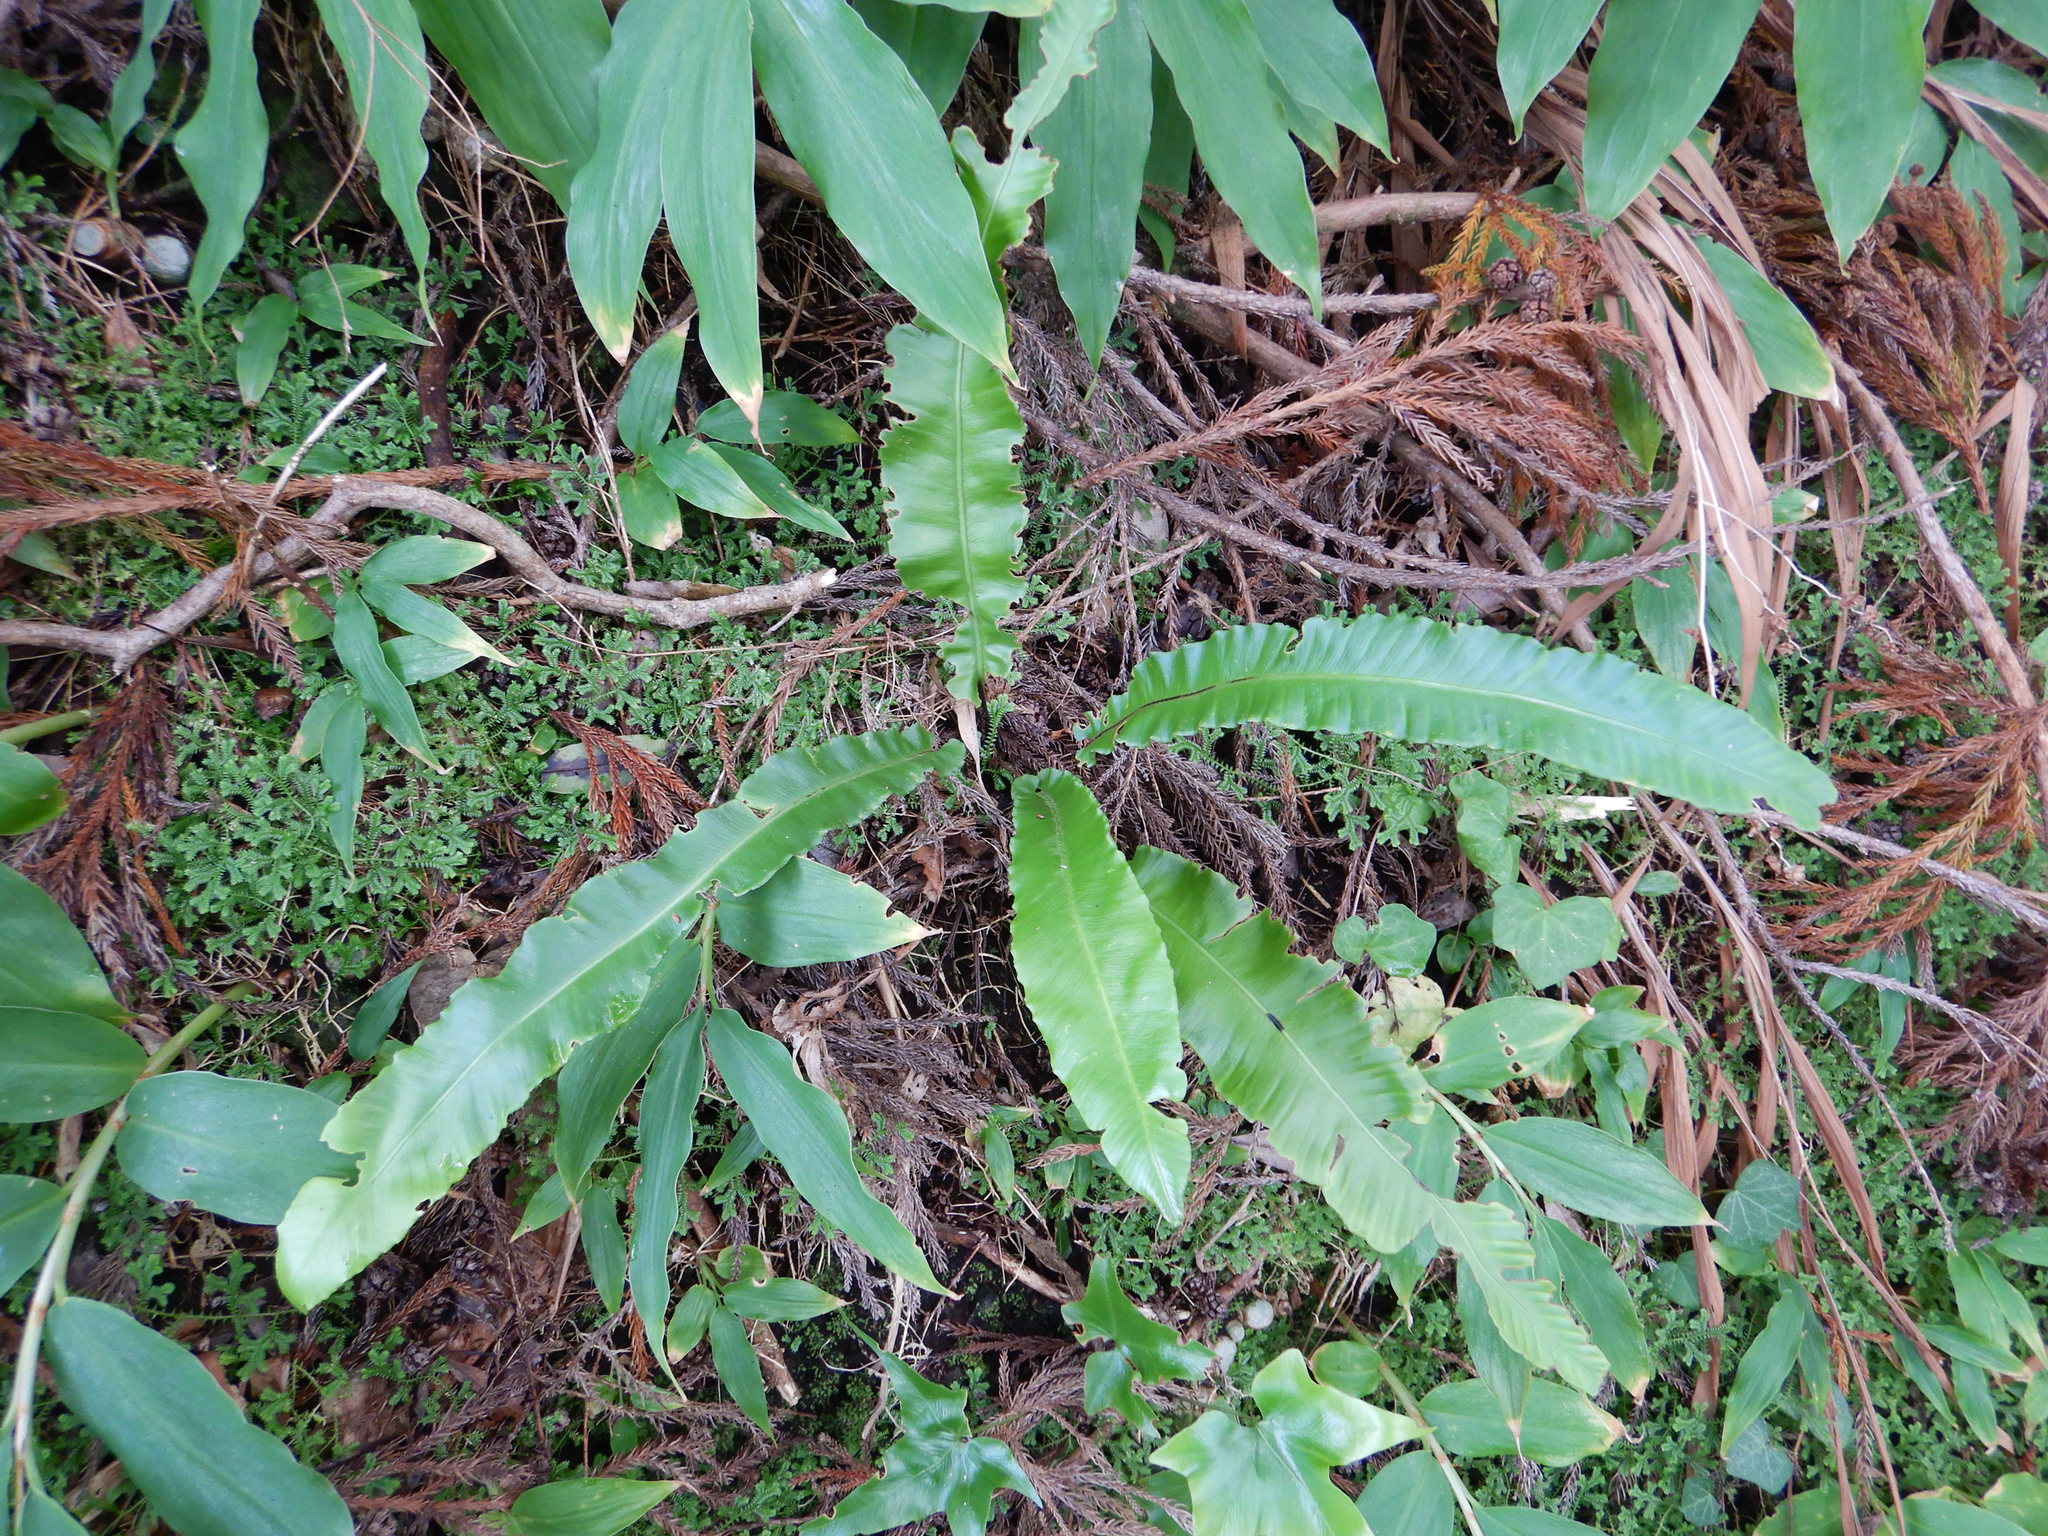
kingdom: Plantae
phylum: Tracheophyta
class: Polypodiopsida
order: Polypodiales
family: Aspleniaceae
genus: Asplenium
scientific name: Asplenium scolopendrium
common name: Hart's-tongue fern
